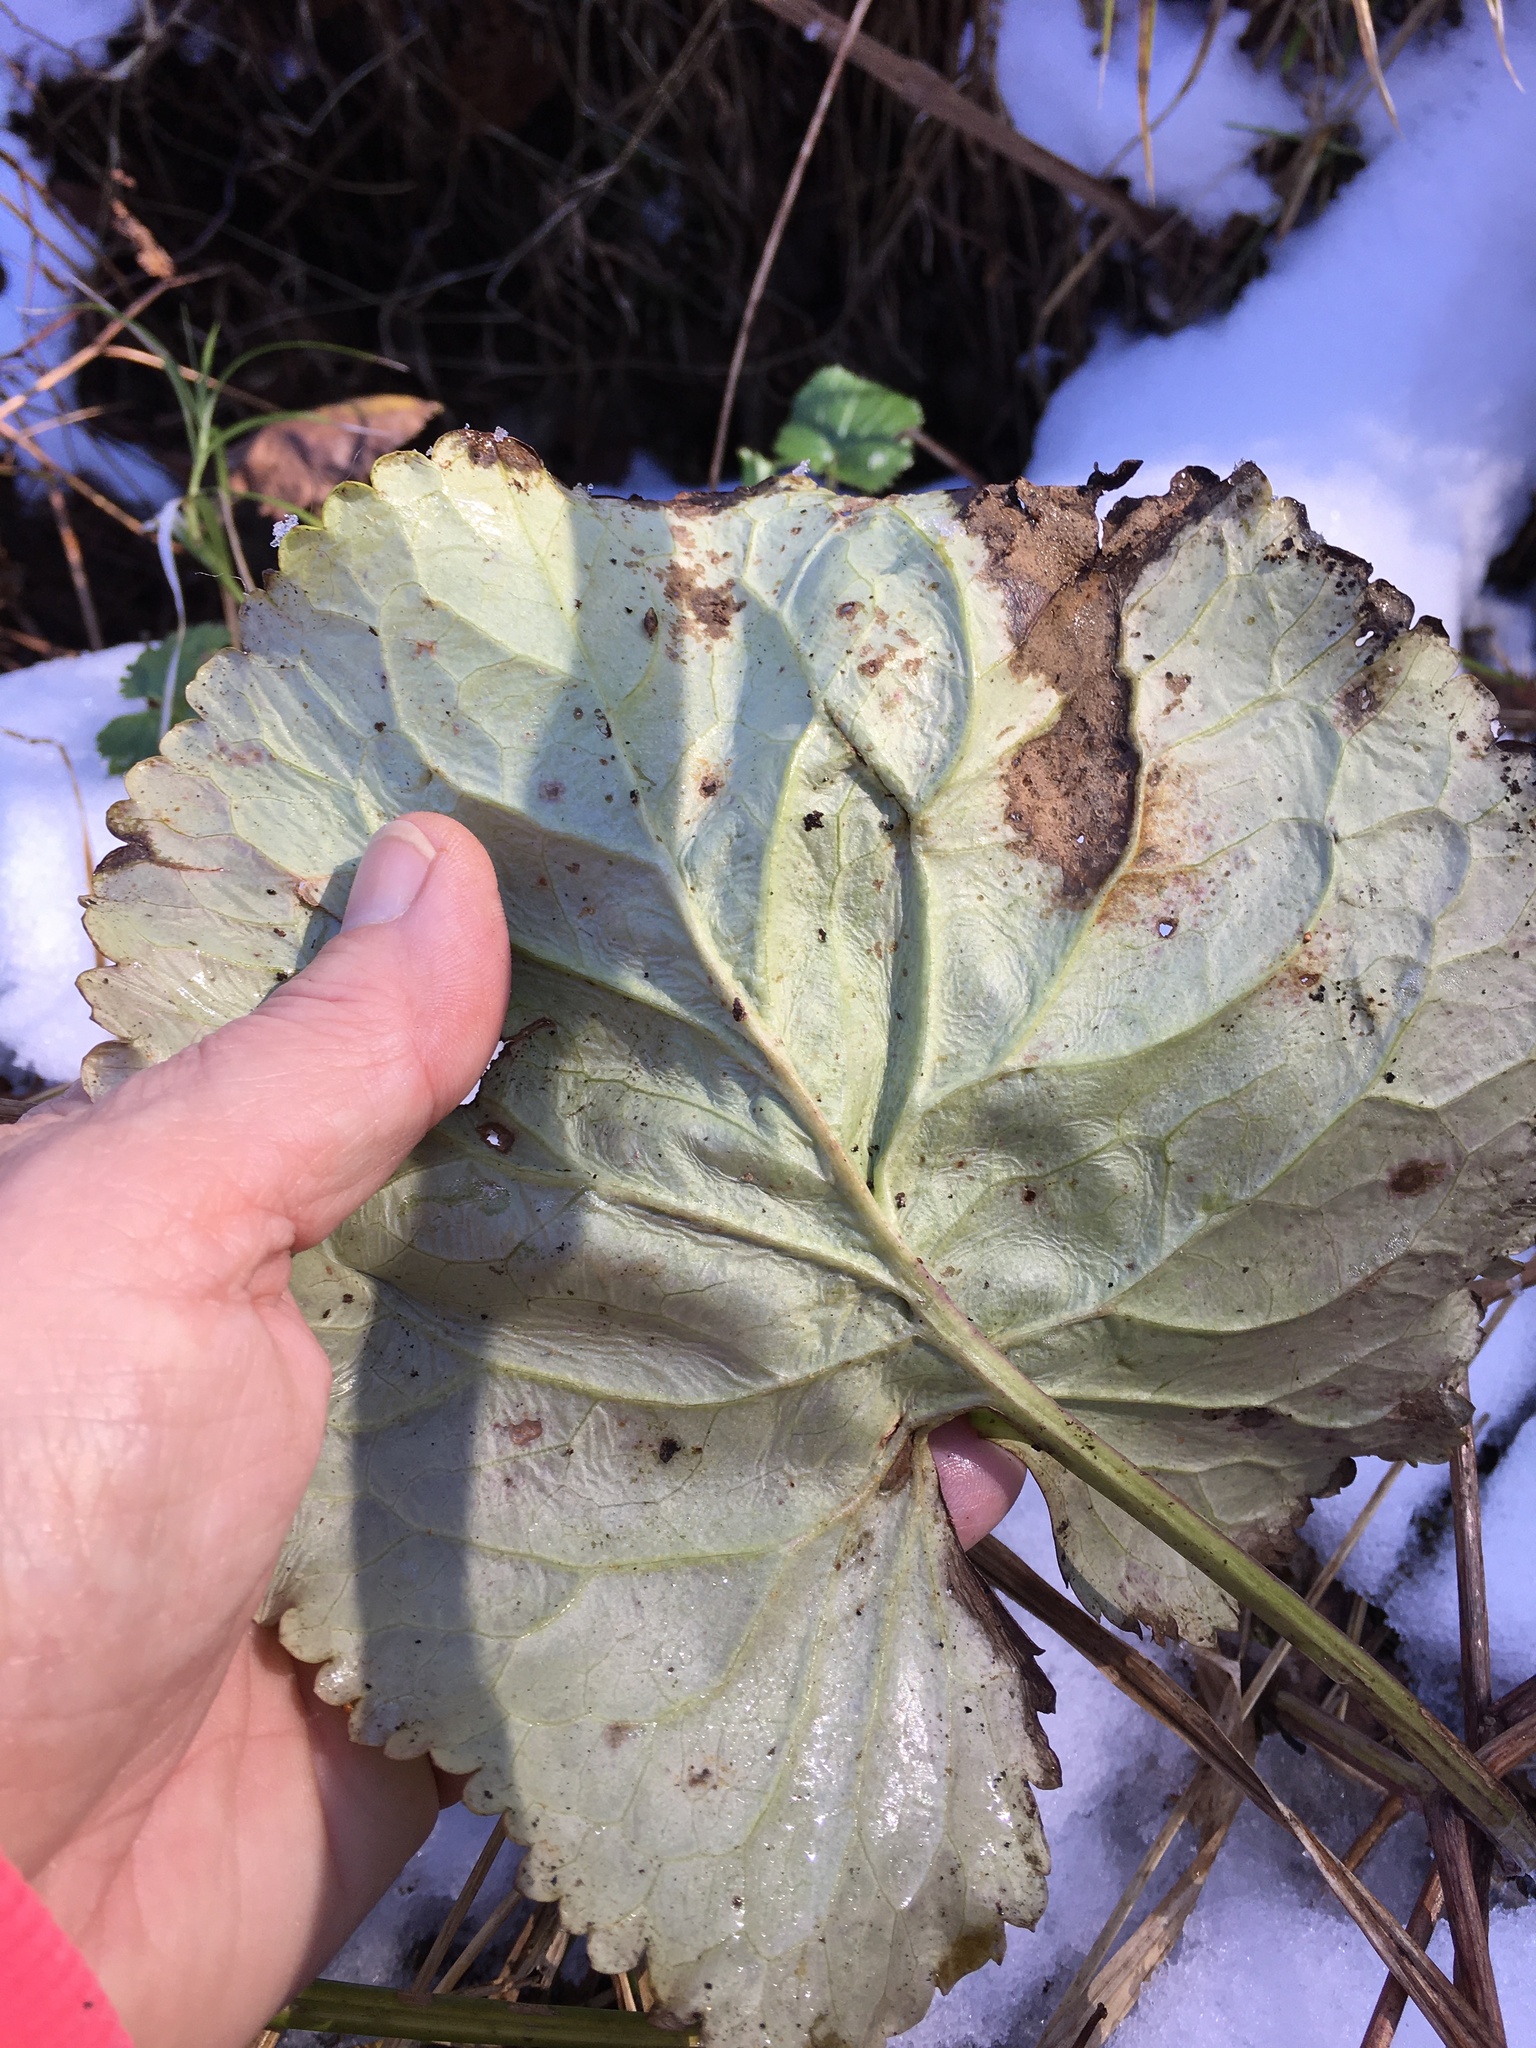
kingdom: Plantae
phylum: Tracheophyta
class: Magnoliopsida
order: Asterales
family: Asteraceae
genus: Packera
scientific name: Packera aurea
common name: Golden groundsel
